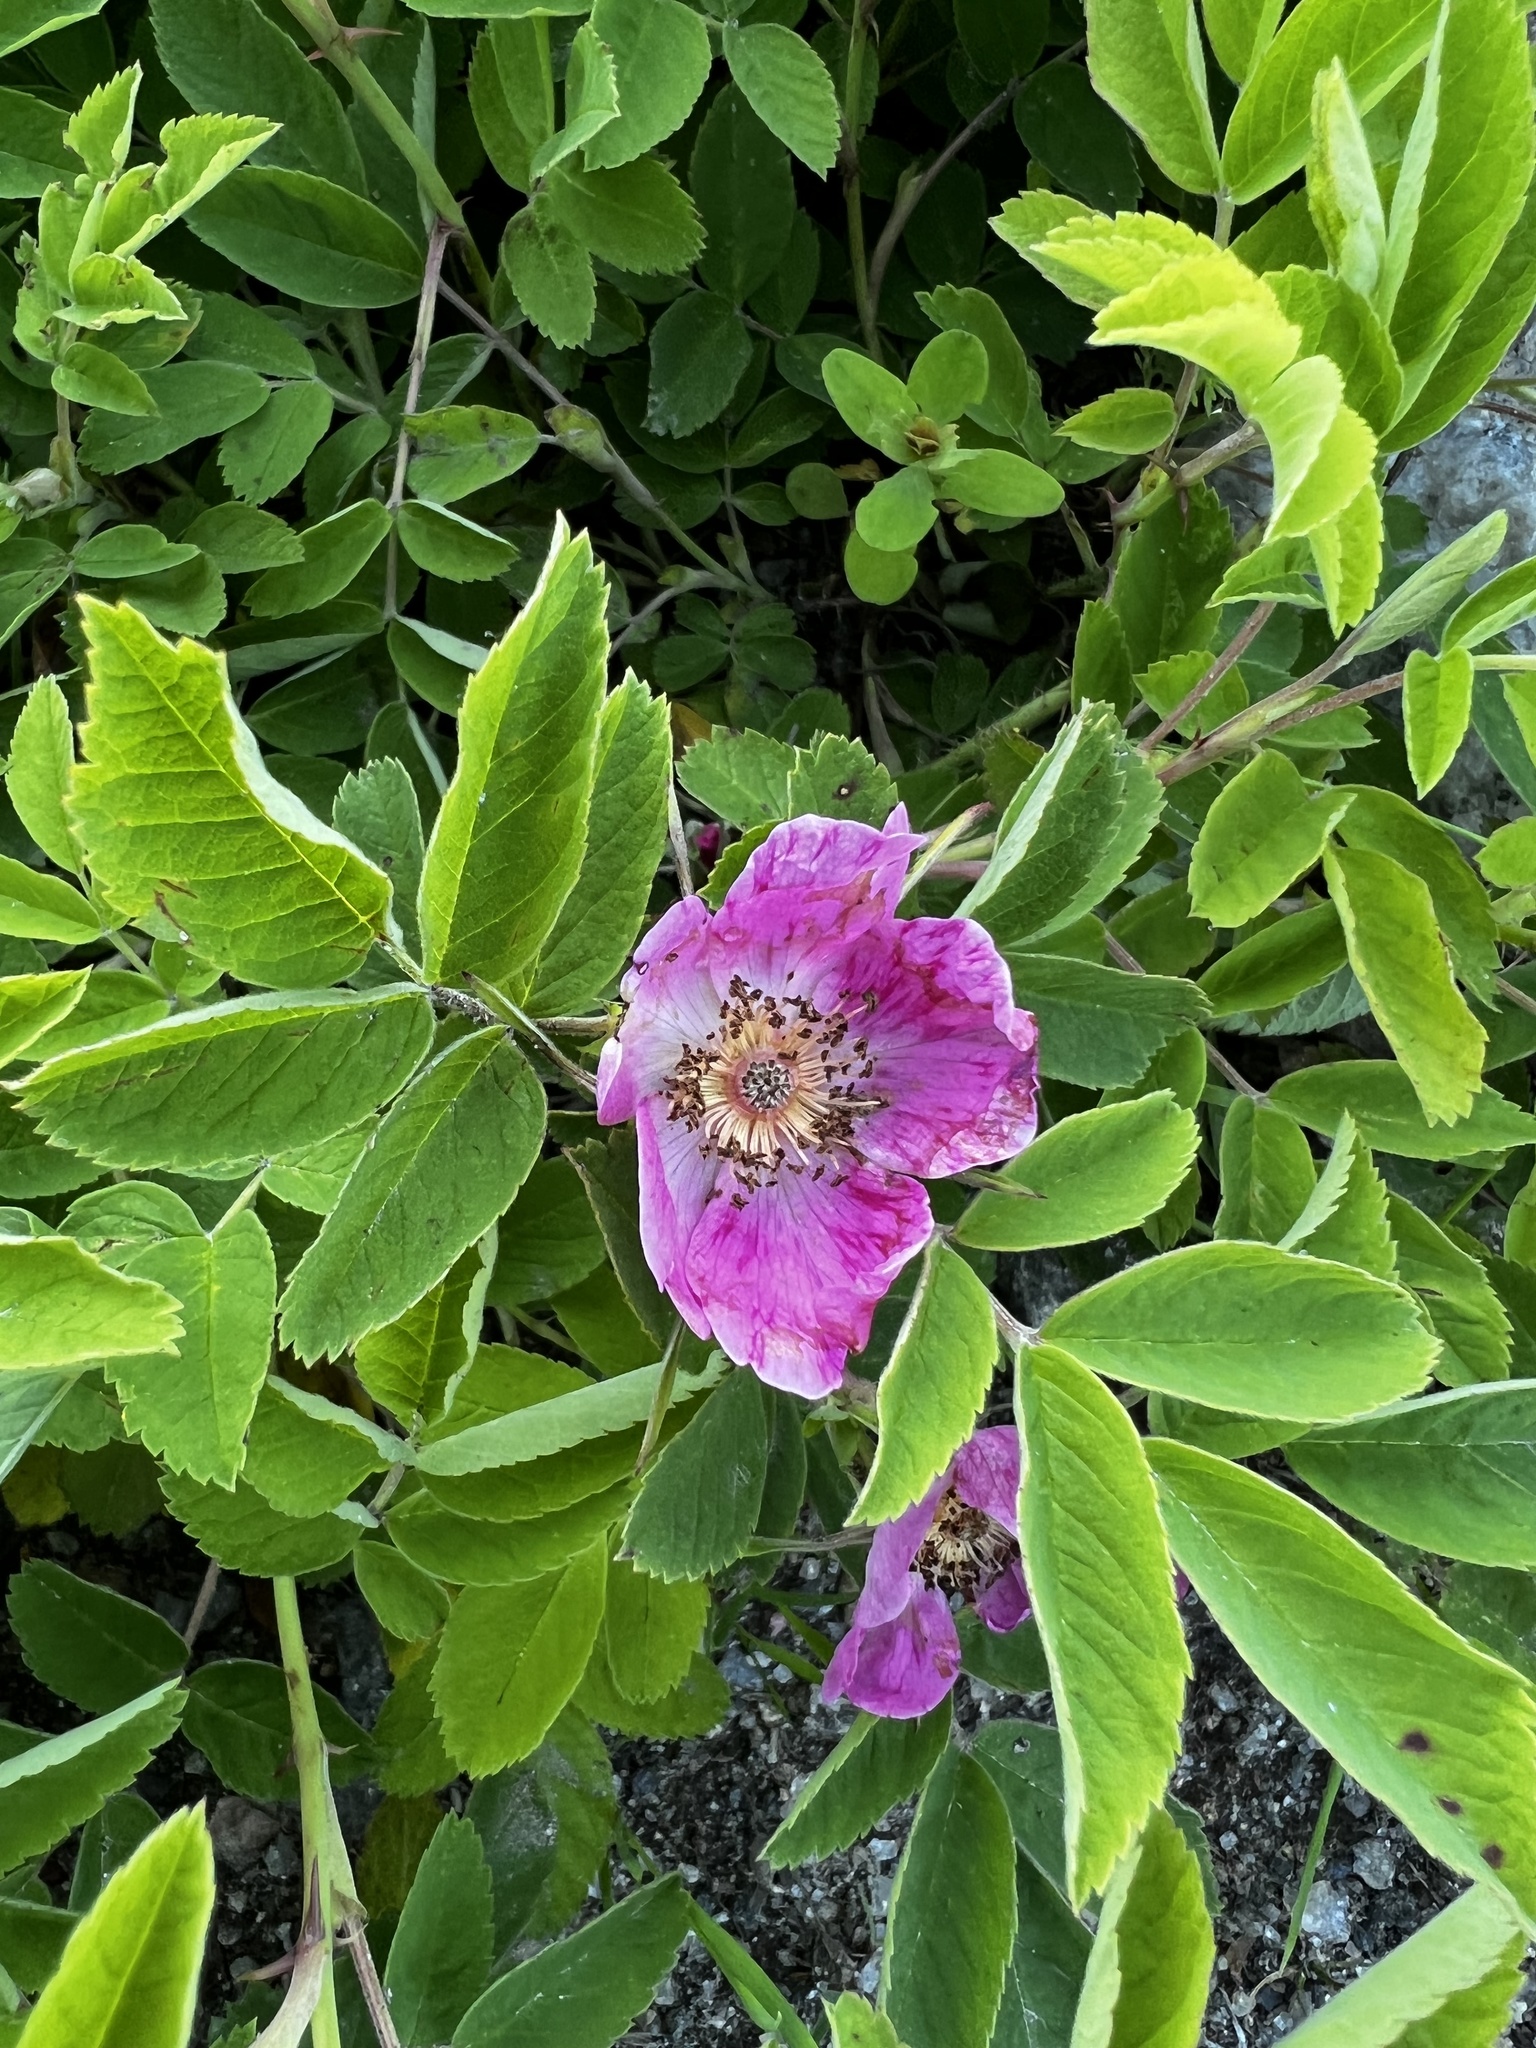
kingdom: Plantae
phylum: Tracheophyta
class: Magnoliopsida
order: Rosales
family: Rosaceae
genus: Rosa
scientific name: Rosa majalis
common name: Cinnamon rose
